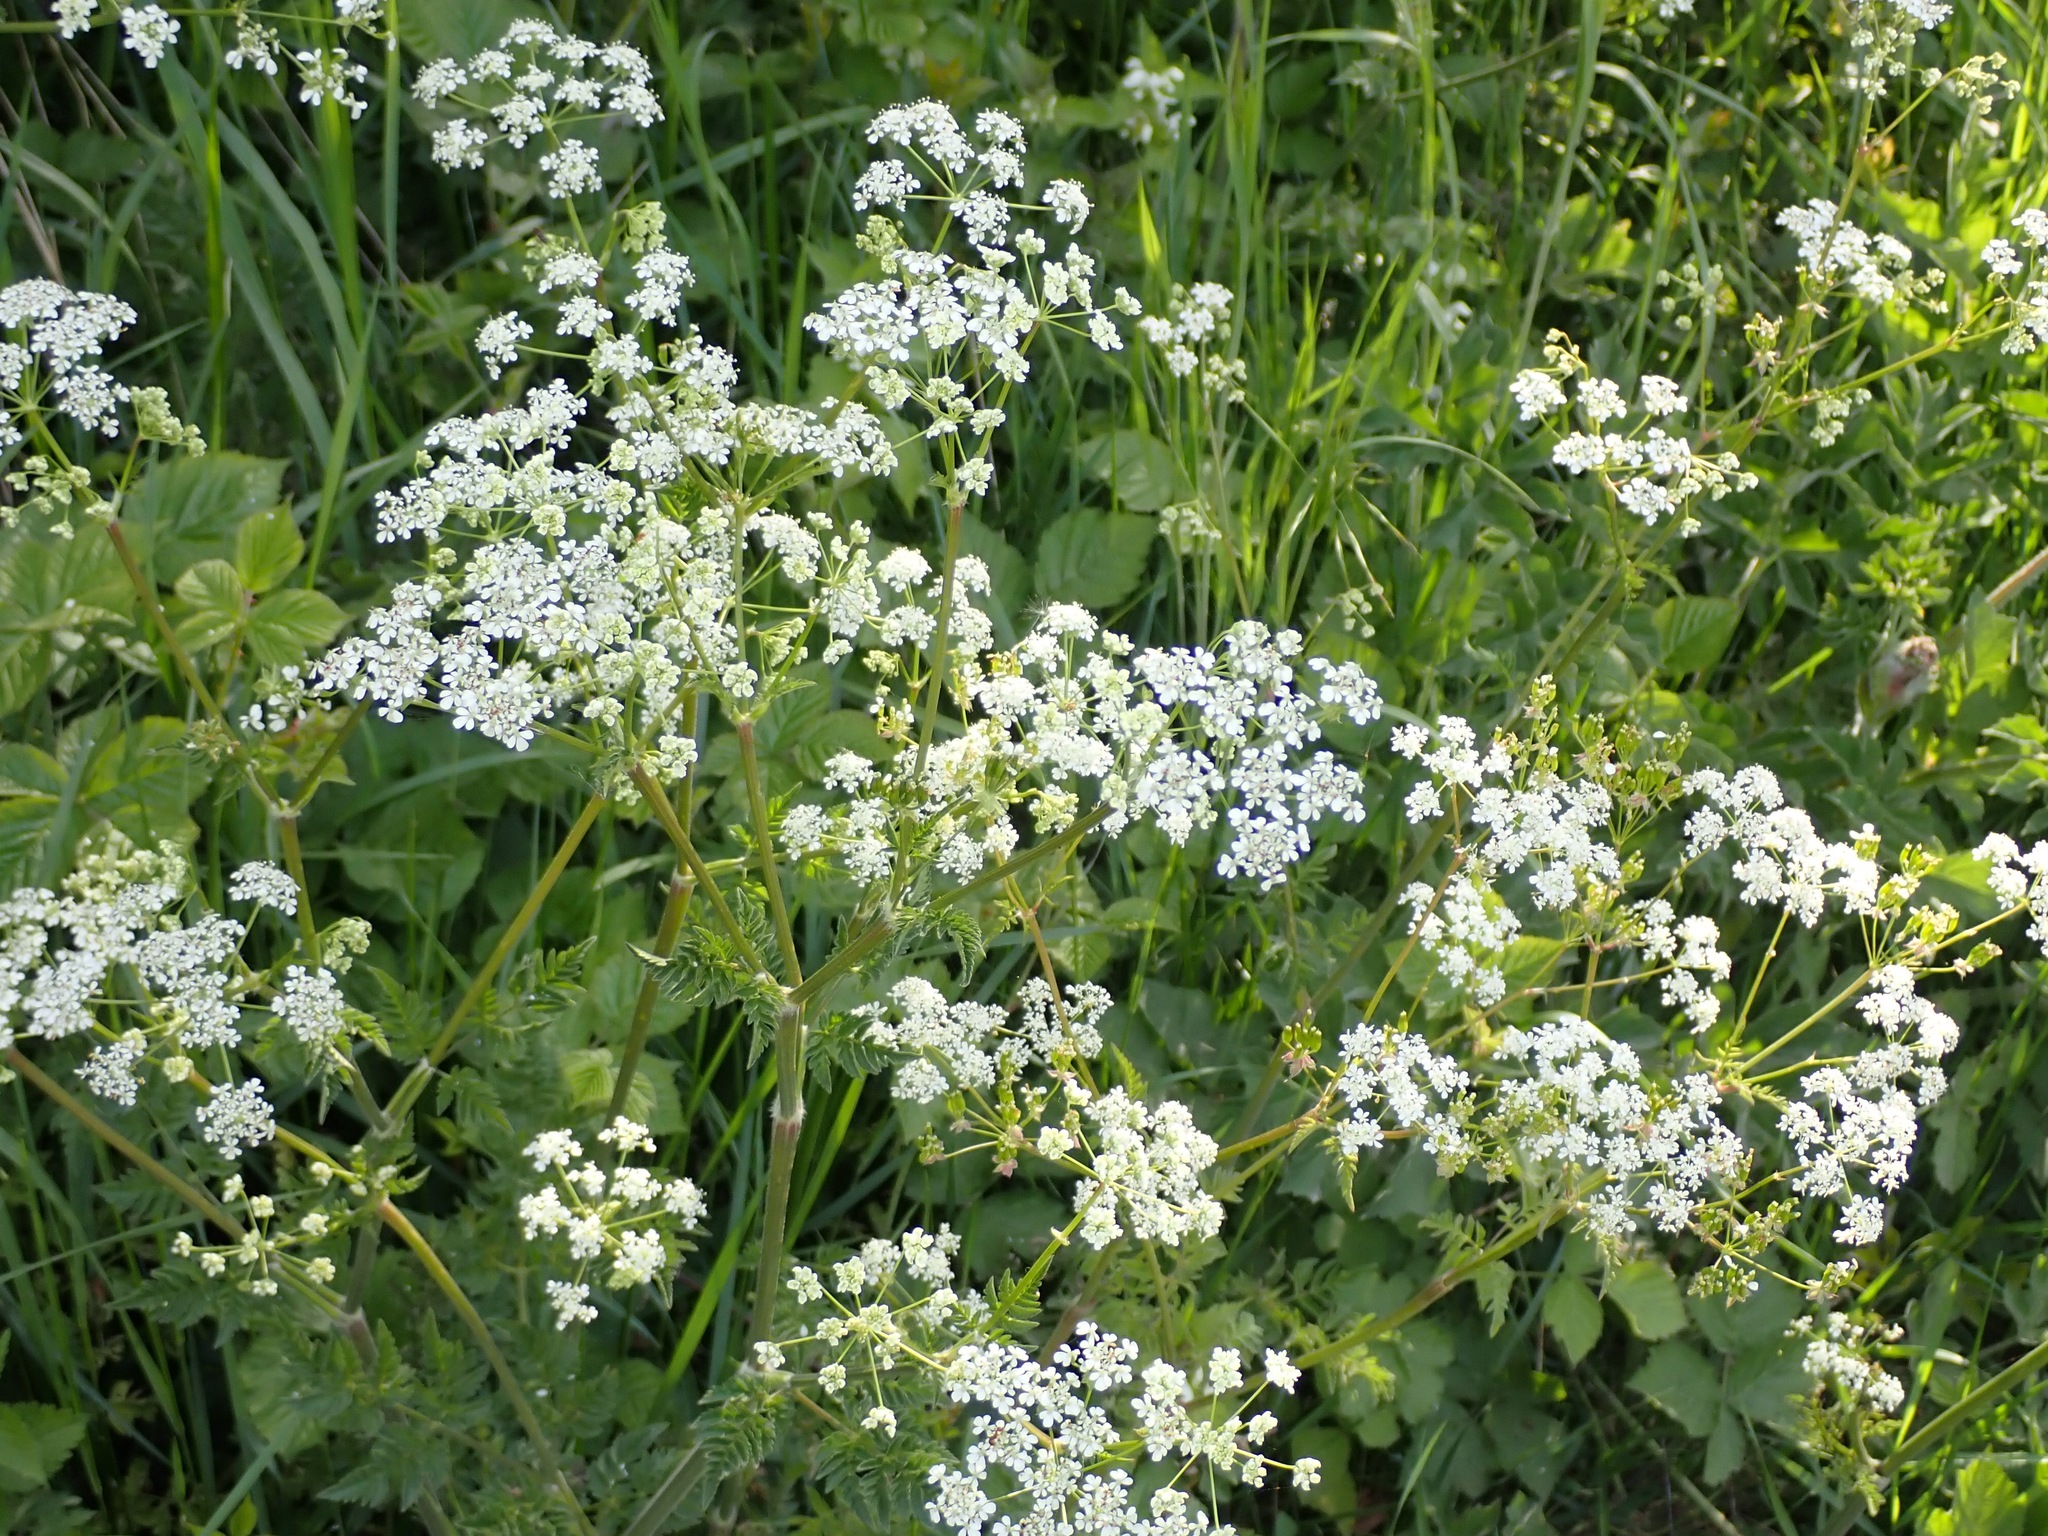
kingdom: Plantae
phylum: Tracheophyta
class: Magnoliopsida
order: Apiales
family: Apiaceae
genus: Anthriscus
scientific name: Anthriscus sylvestris
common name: Cow parsley
